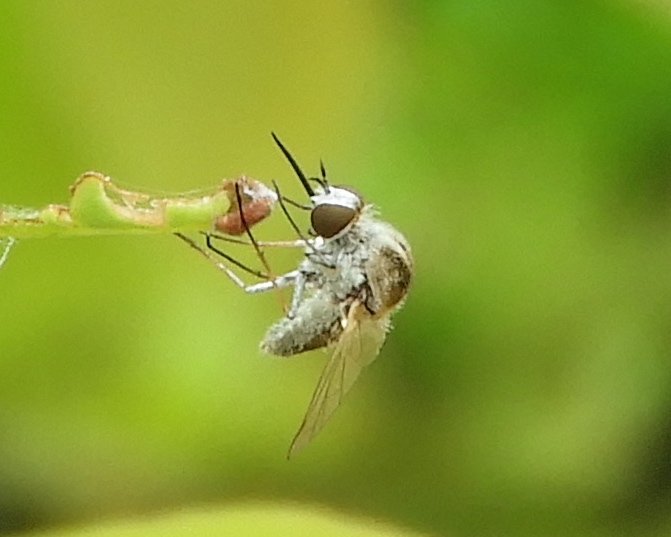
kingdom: Animalia
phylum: Arthropoda
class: Insecta
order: Diptera
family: Bombyliidae
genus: Geron
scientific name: Geron
